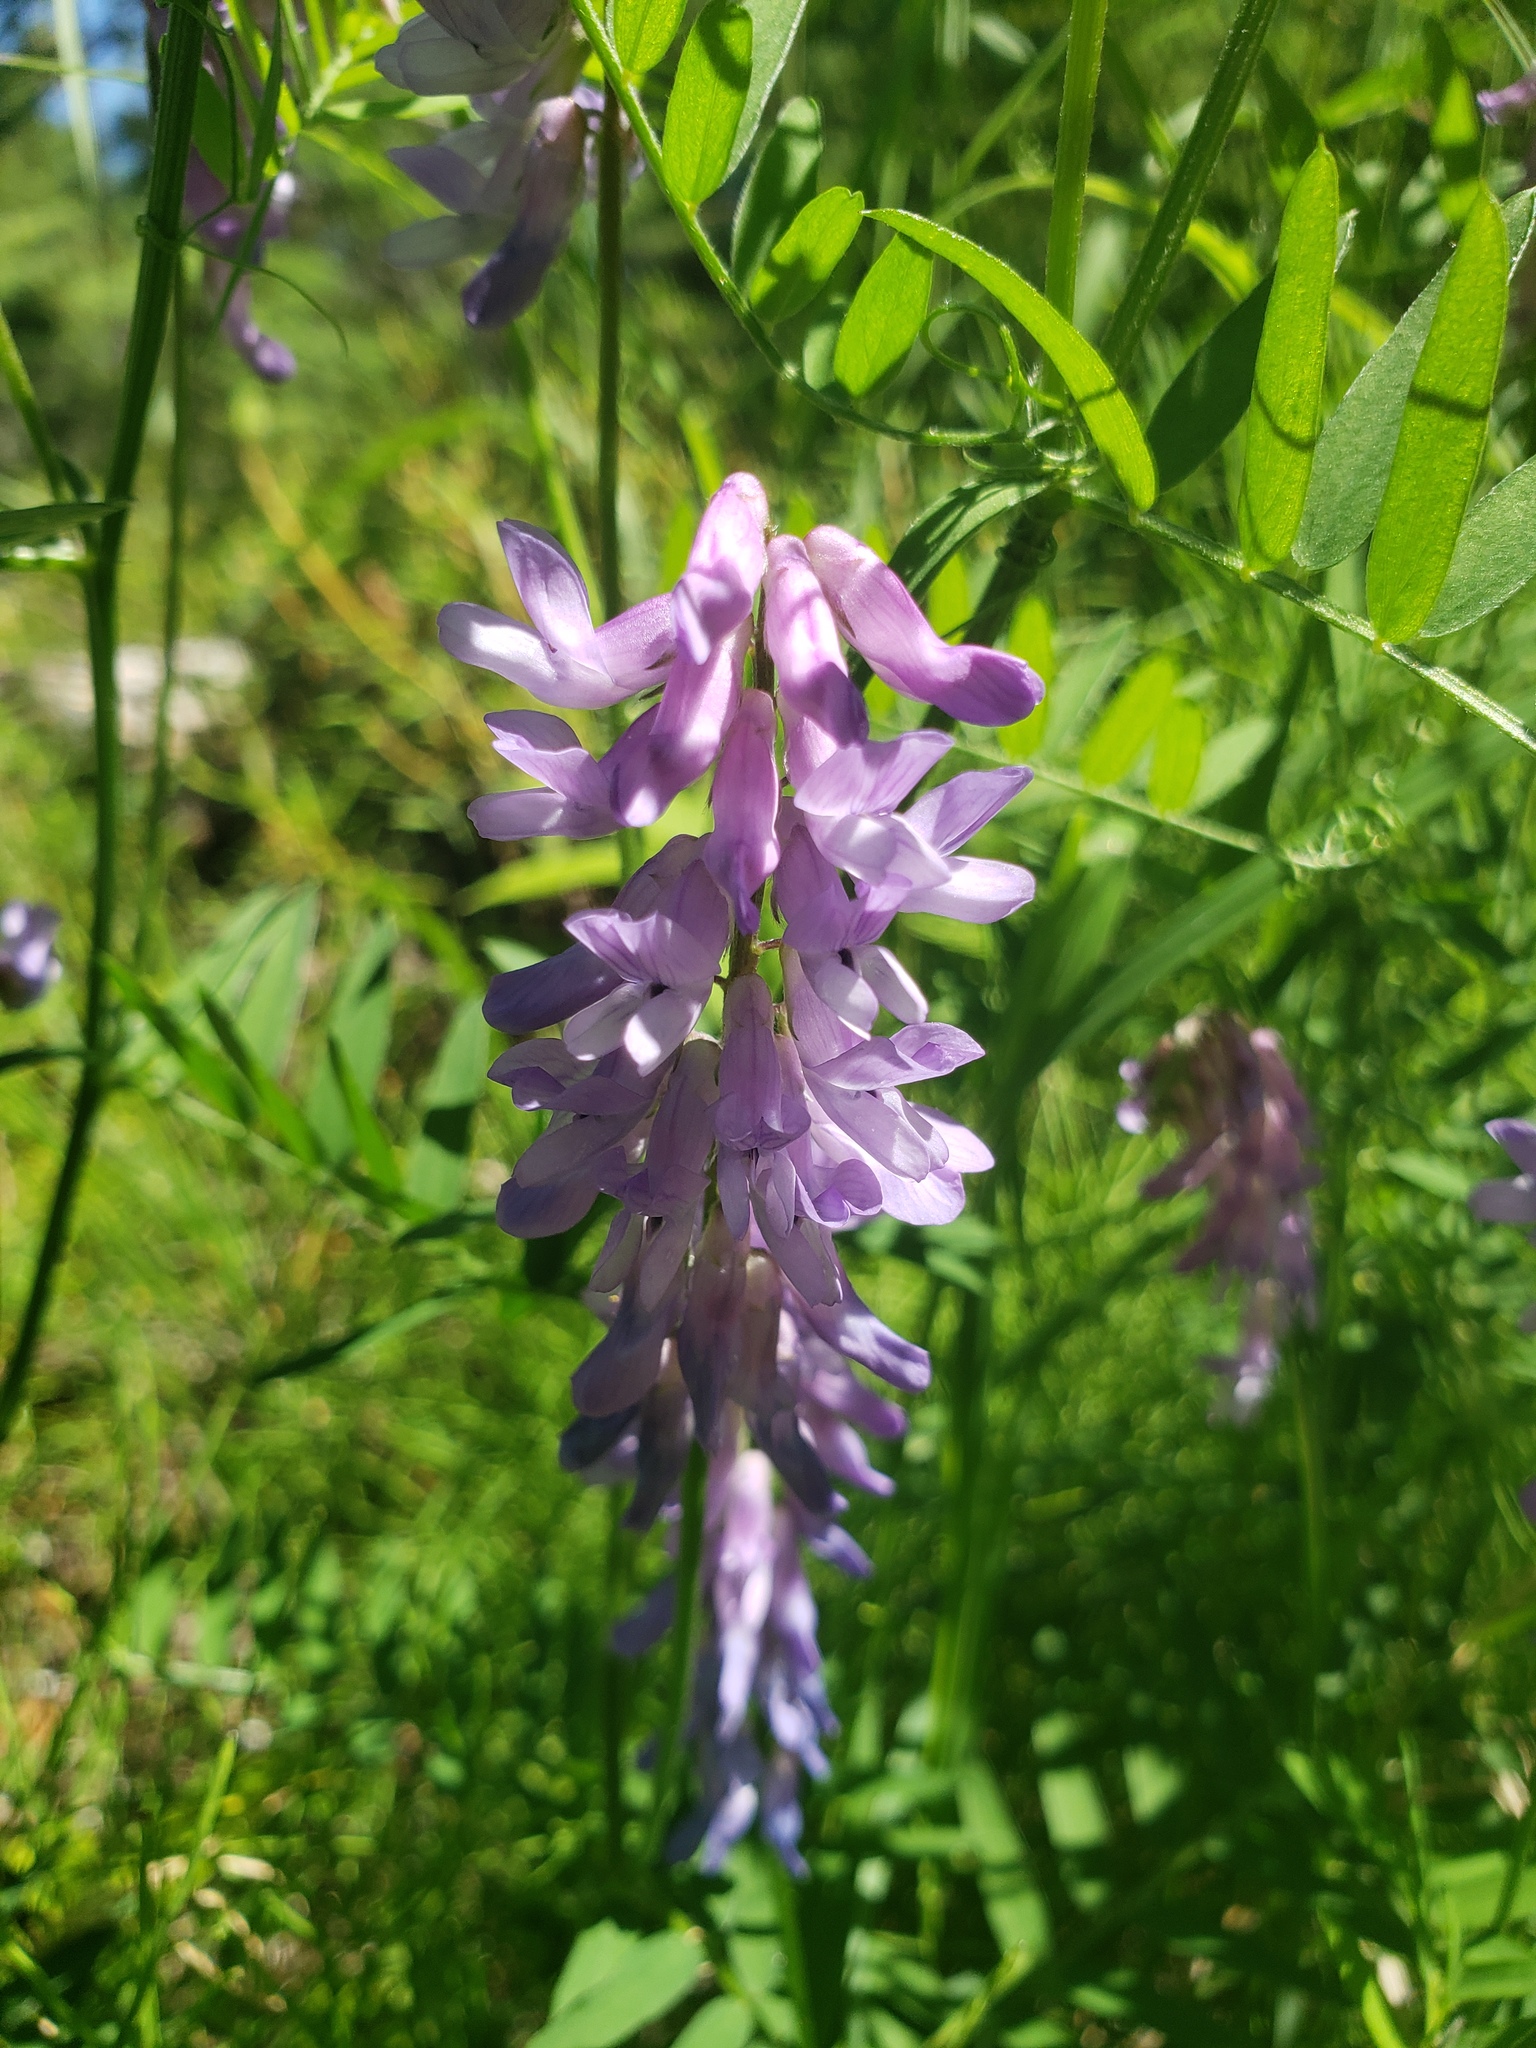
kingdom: Plantae
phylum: Tracheophyta
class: Magnoliopsida
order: Fabales
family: Fabaceae
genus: Vicia
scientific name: Vicia cracca
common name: Bird vetch
